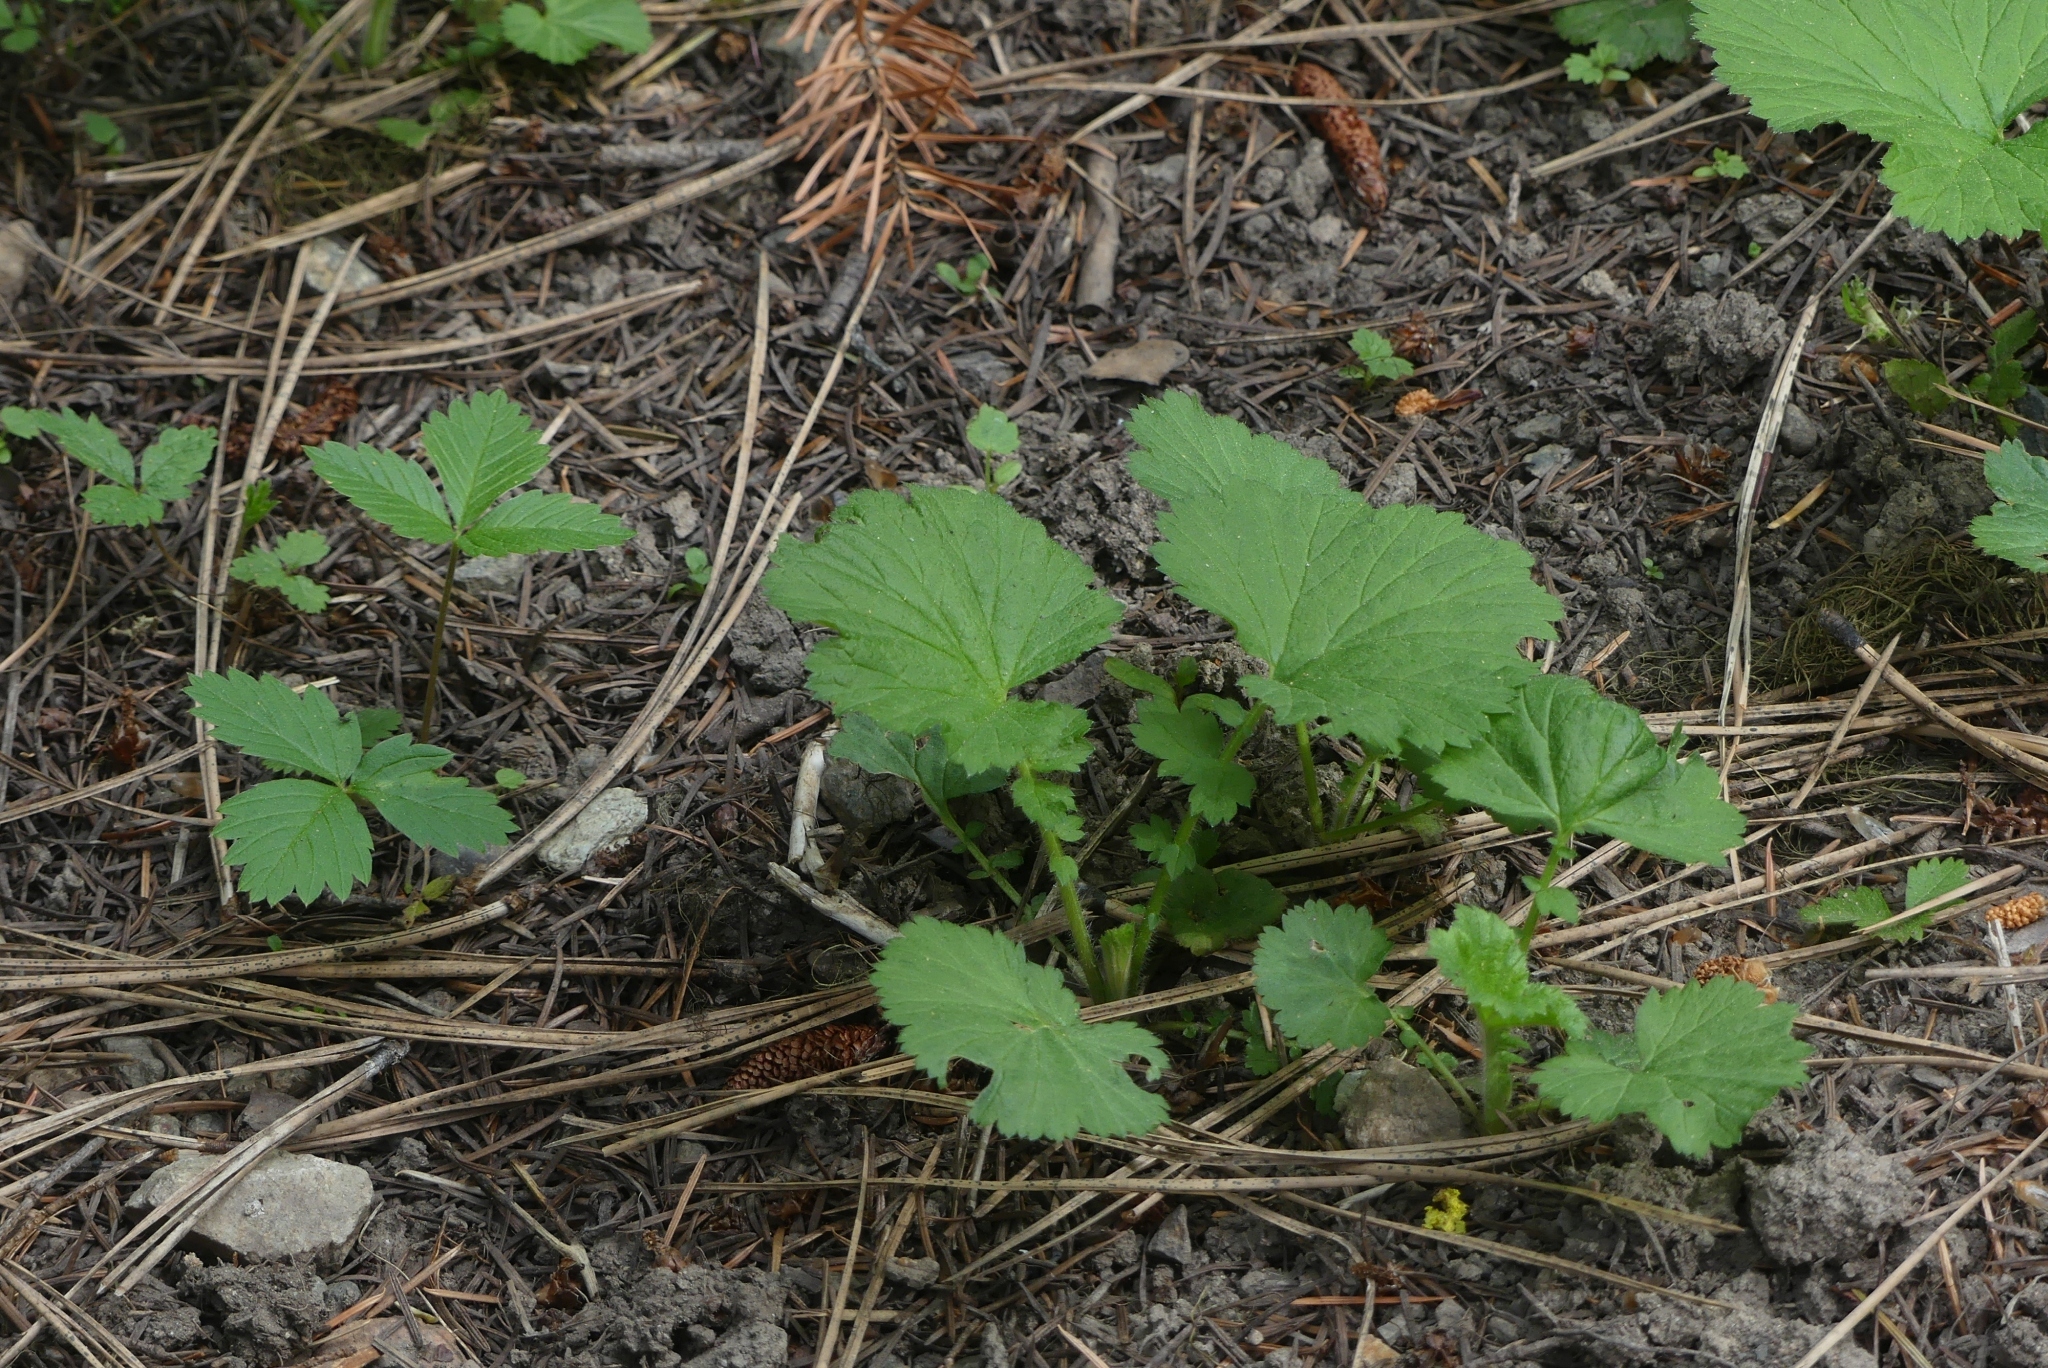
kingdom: Plantae
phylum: Tracheophyta
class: Magnoliopsida
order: Rosales
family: Rosaceae
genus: Geum
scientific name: Geum macrophyllum
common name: Large-leaved avens
